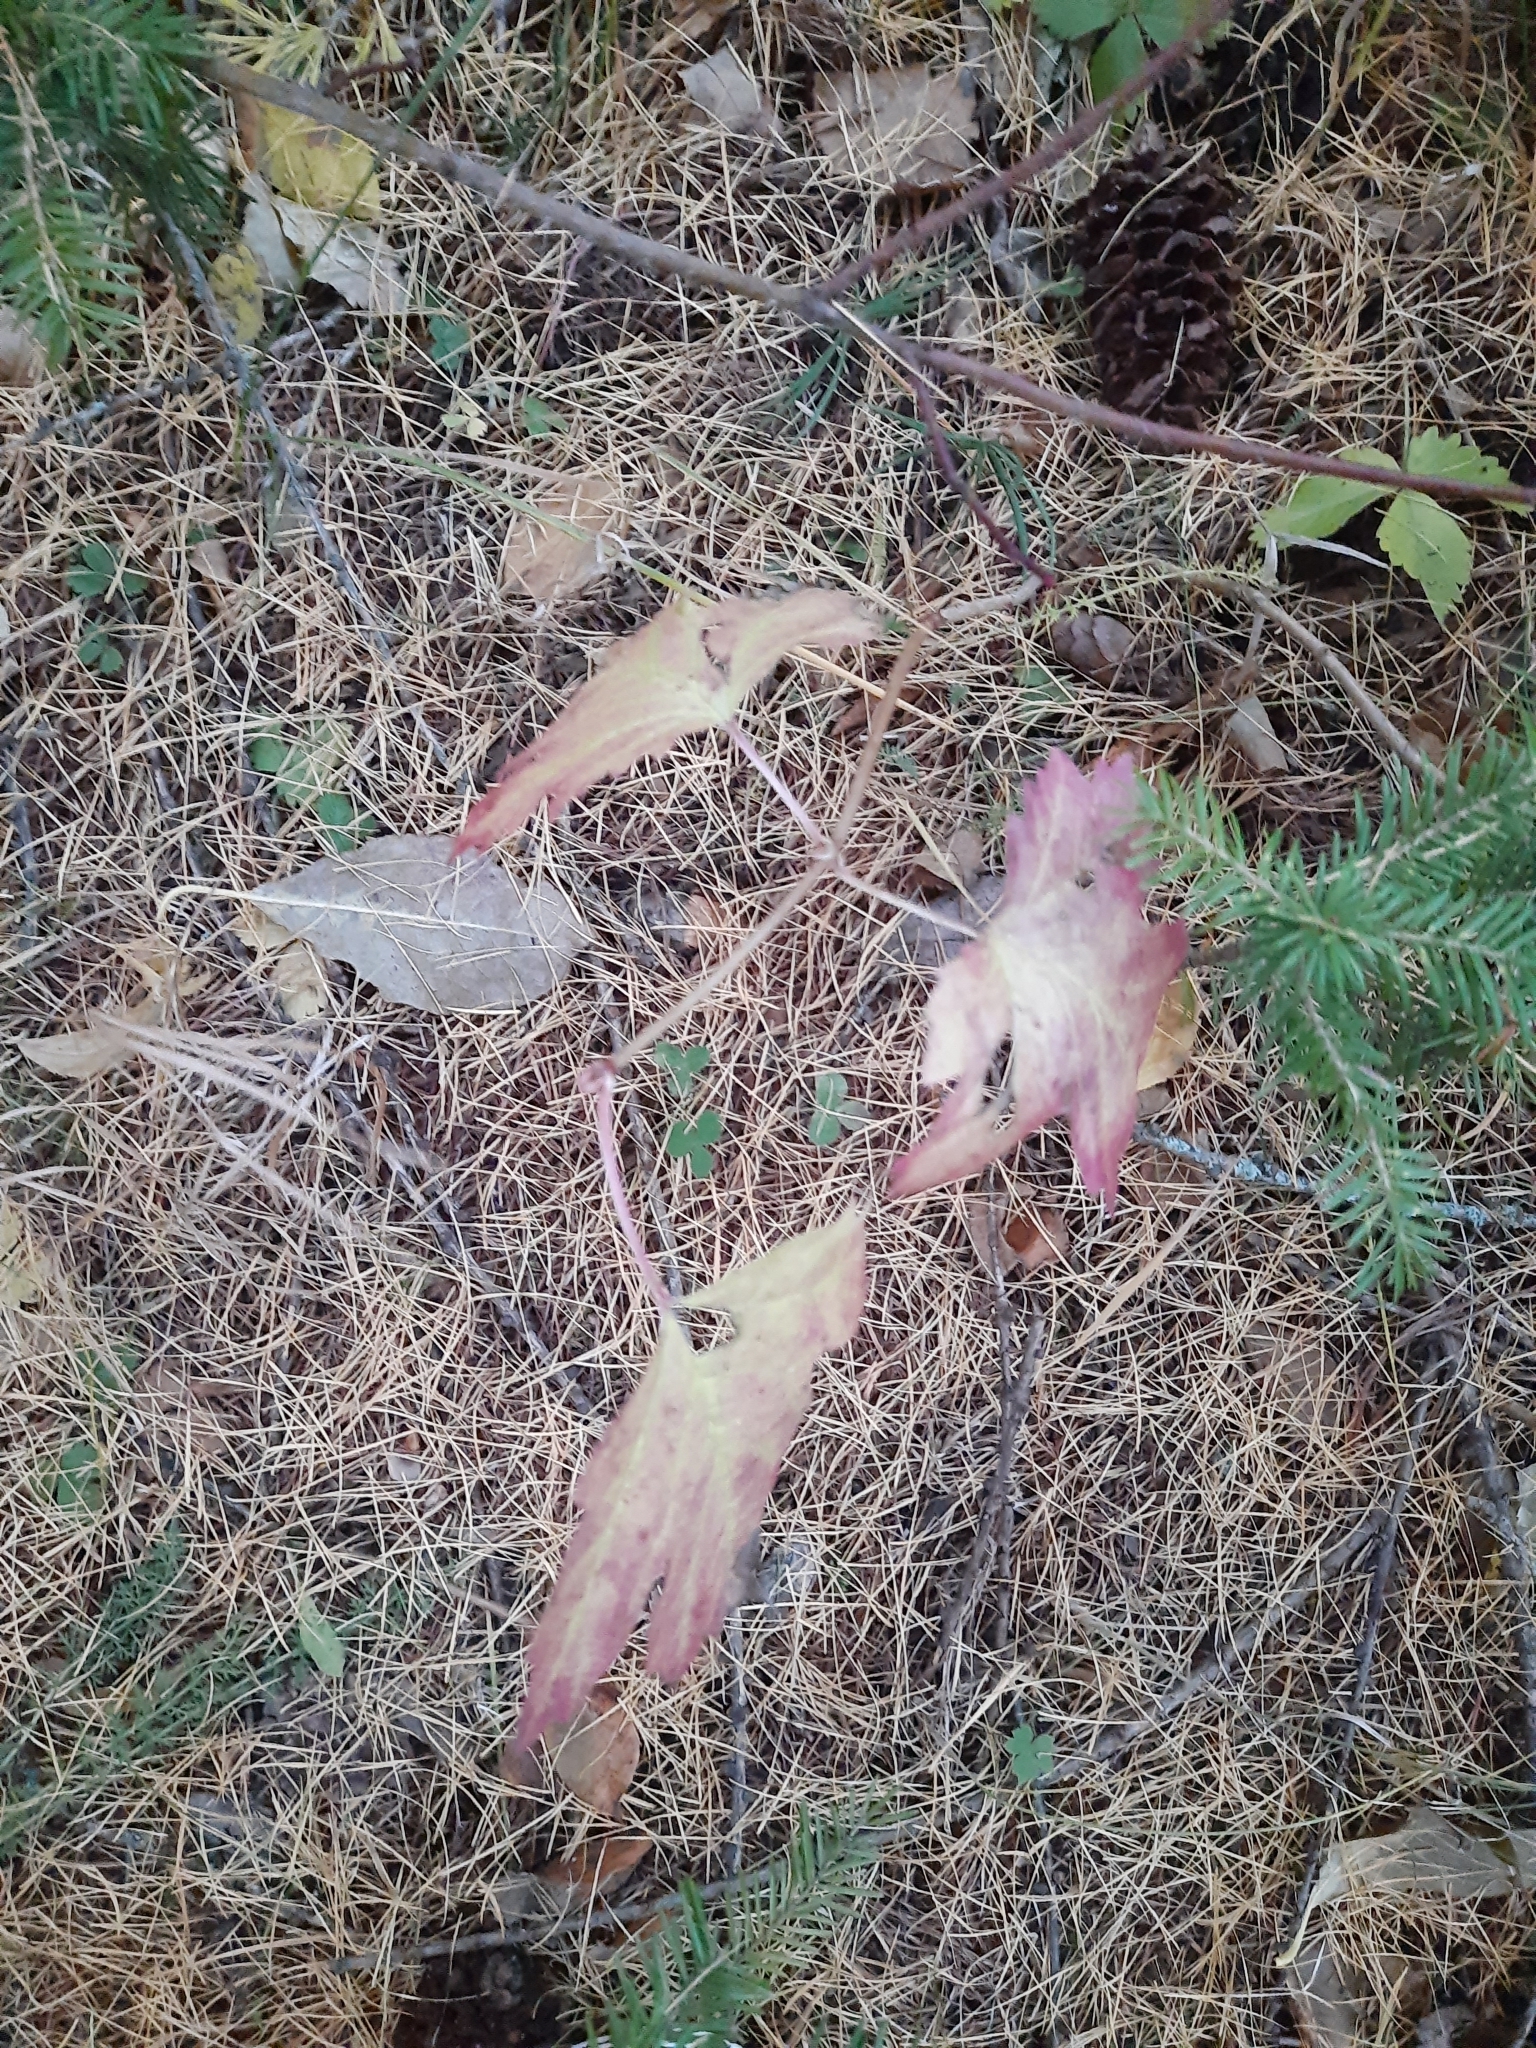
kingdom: Plantae
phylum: Tracheophyta
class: Magnoliopsida
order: Dipsacales
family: Viburnaceae
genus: Viburnum
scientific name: Viburnum opulus
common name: Guelder-rose
